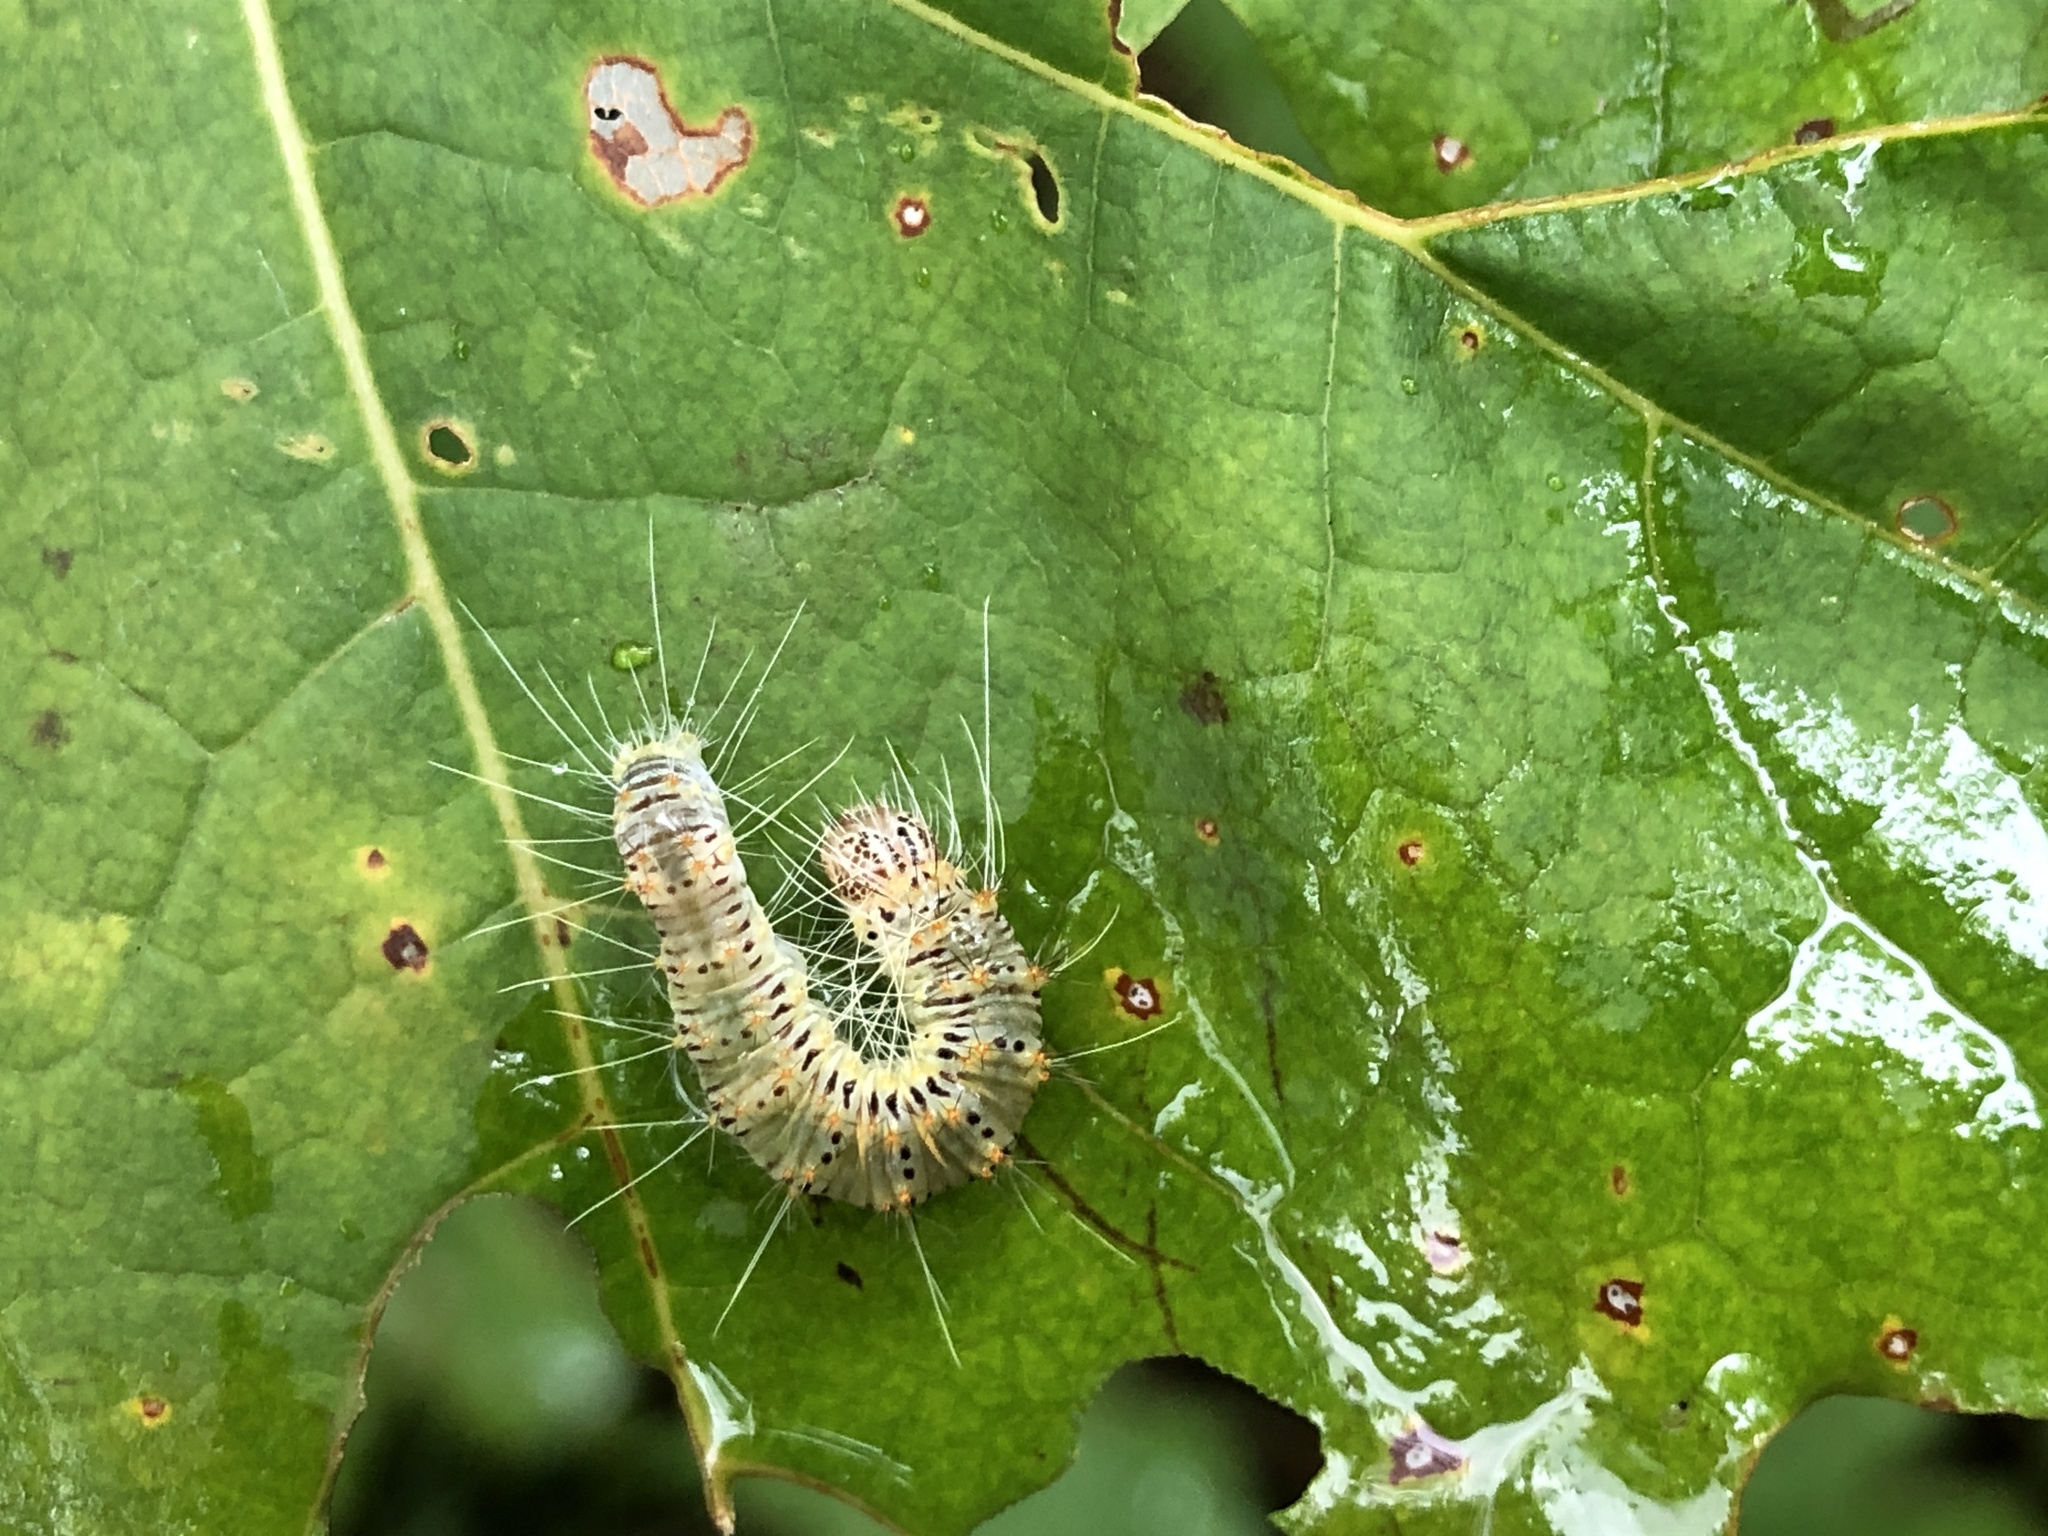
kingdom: Animalia
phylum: Arthropoda
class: Insecta
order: Lepidoptera
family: Noctuidae
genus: Acronicta
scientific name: Acronicta retardata
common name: Maple dagger
